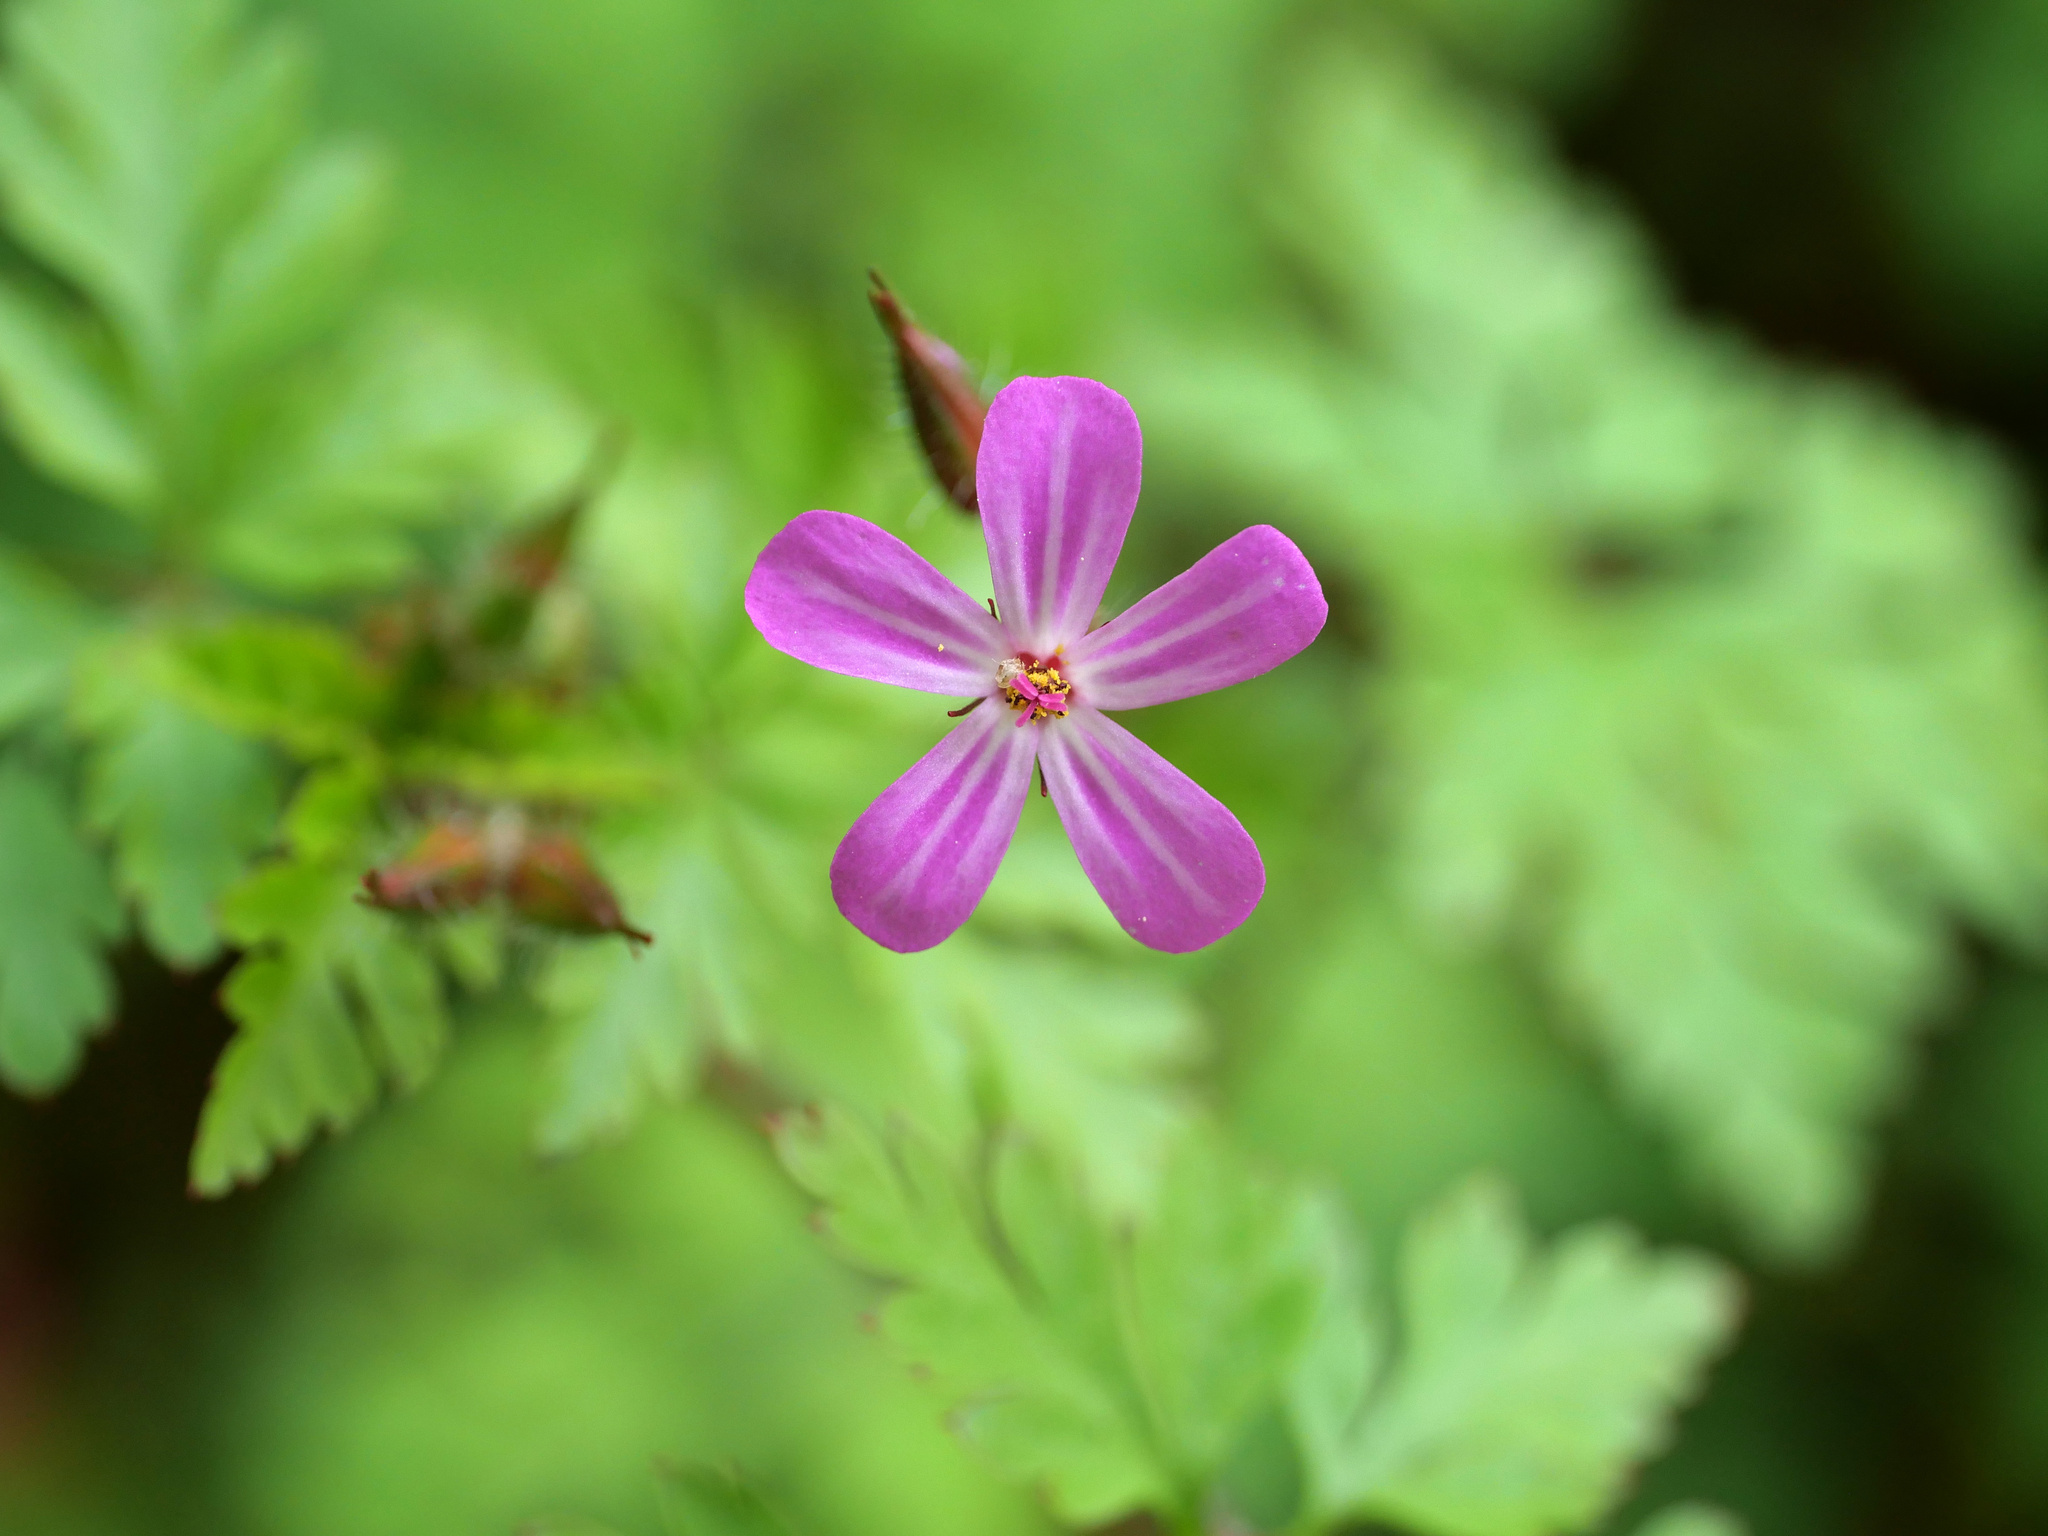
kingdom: Plantae
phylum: Tracheophyta
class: Magnoliopsida
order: Geraniales
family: Geraniaceae
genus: Geranium
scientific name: Geranium robertianum
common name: Herb-robert
